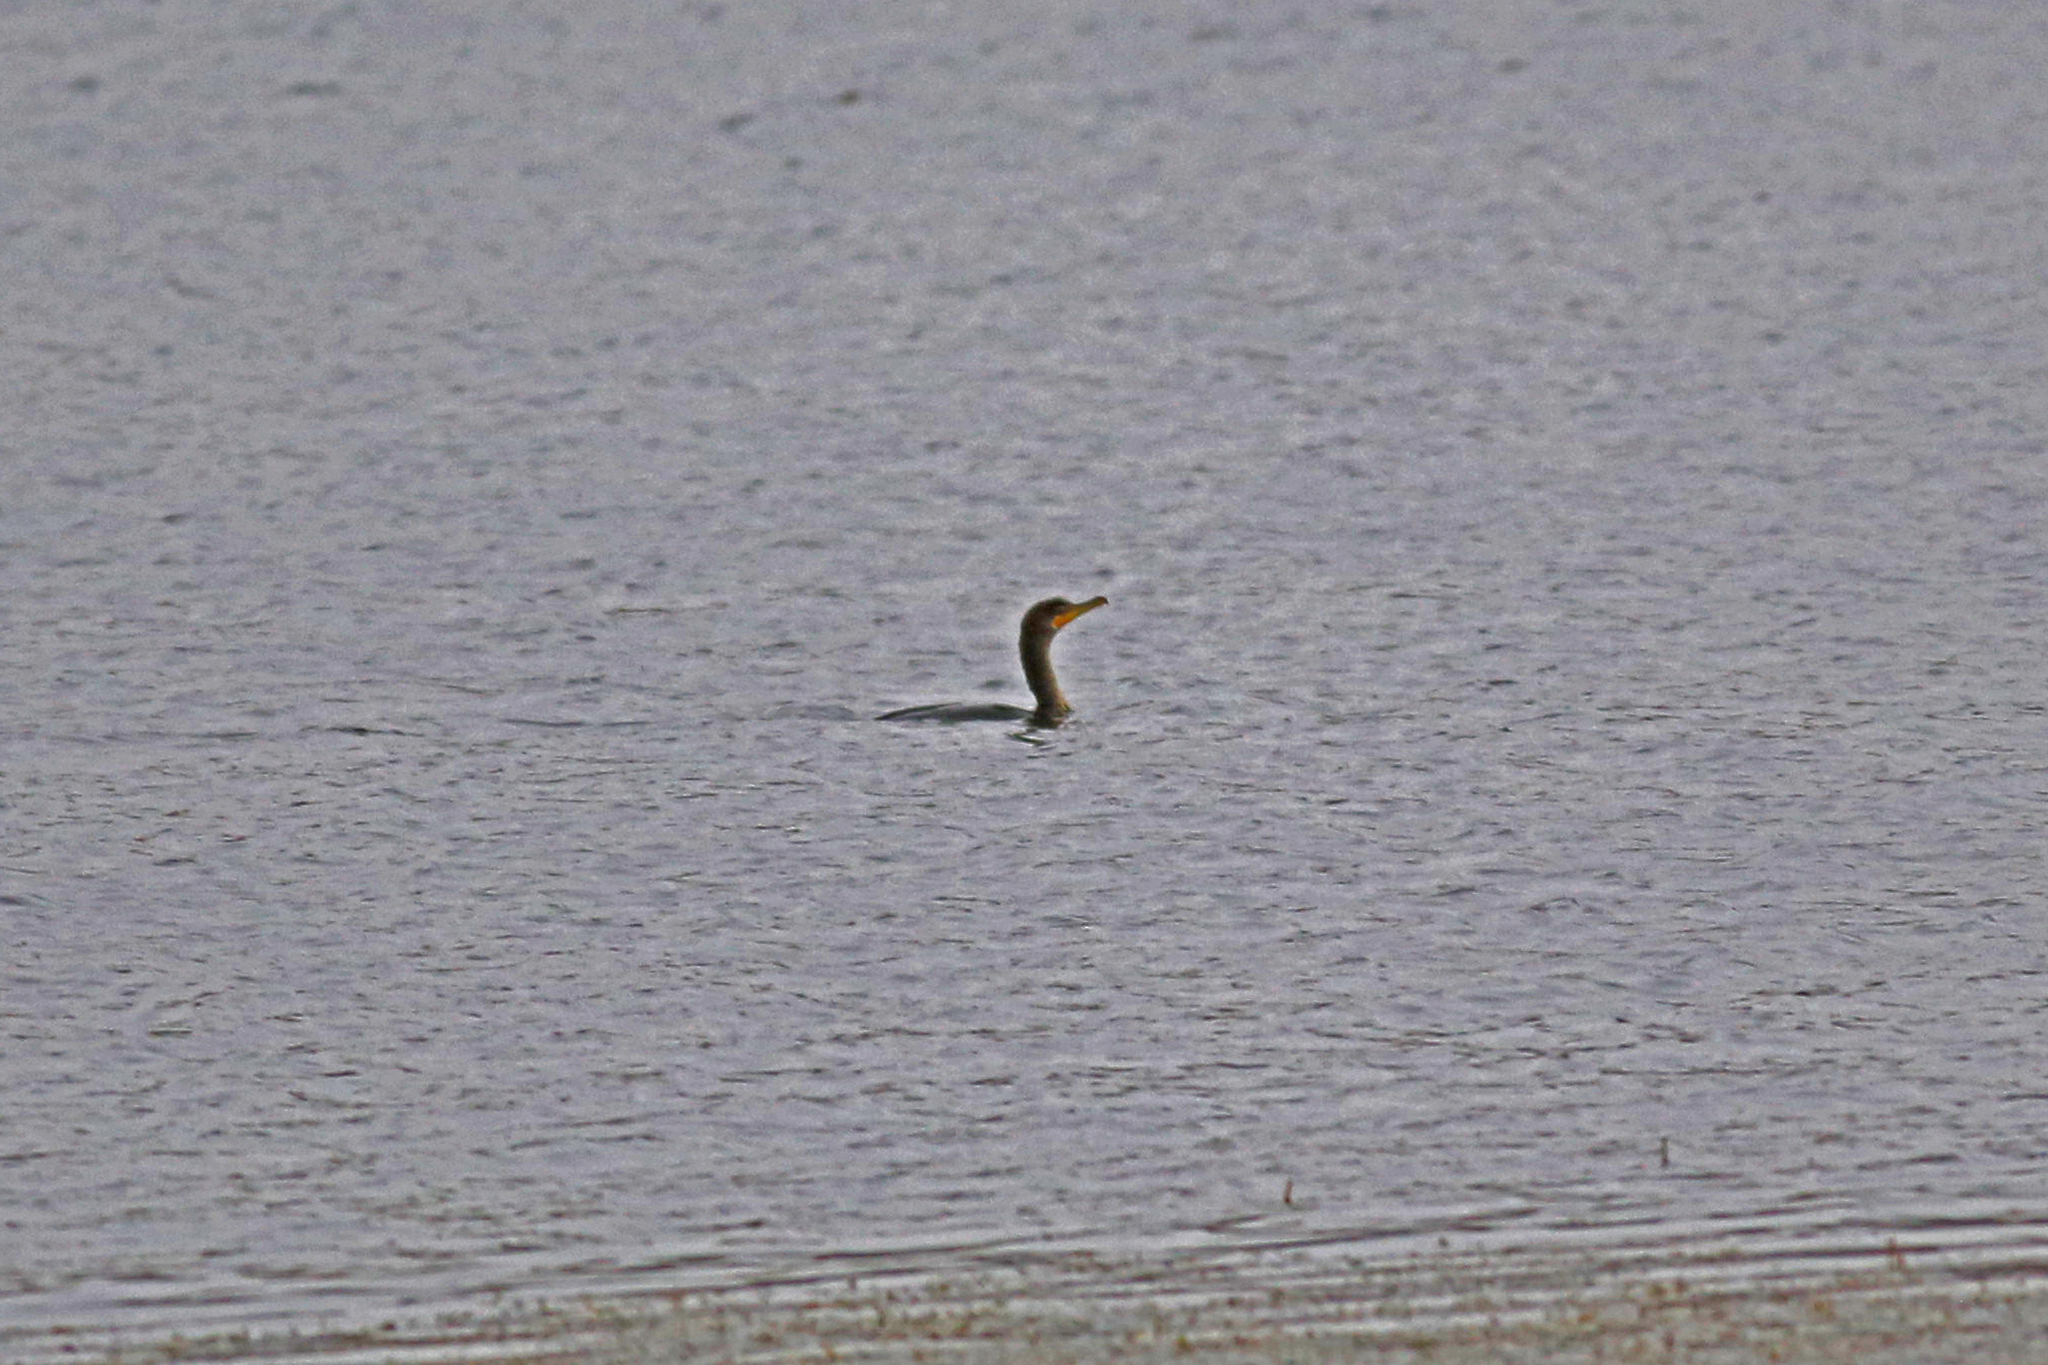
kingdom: Animalia
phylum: Chordata
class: Aves
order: Suliformes
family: Phalacrocoracidae
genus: Phalacrocorax
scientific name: Phalacrocorax auritus
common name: Double-crested cormorant
